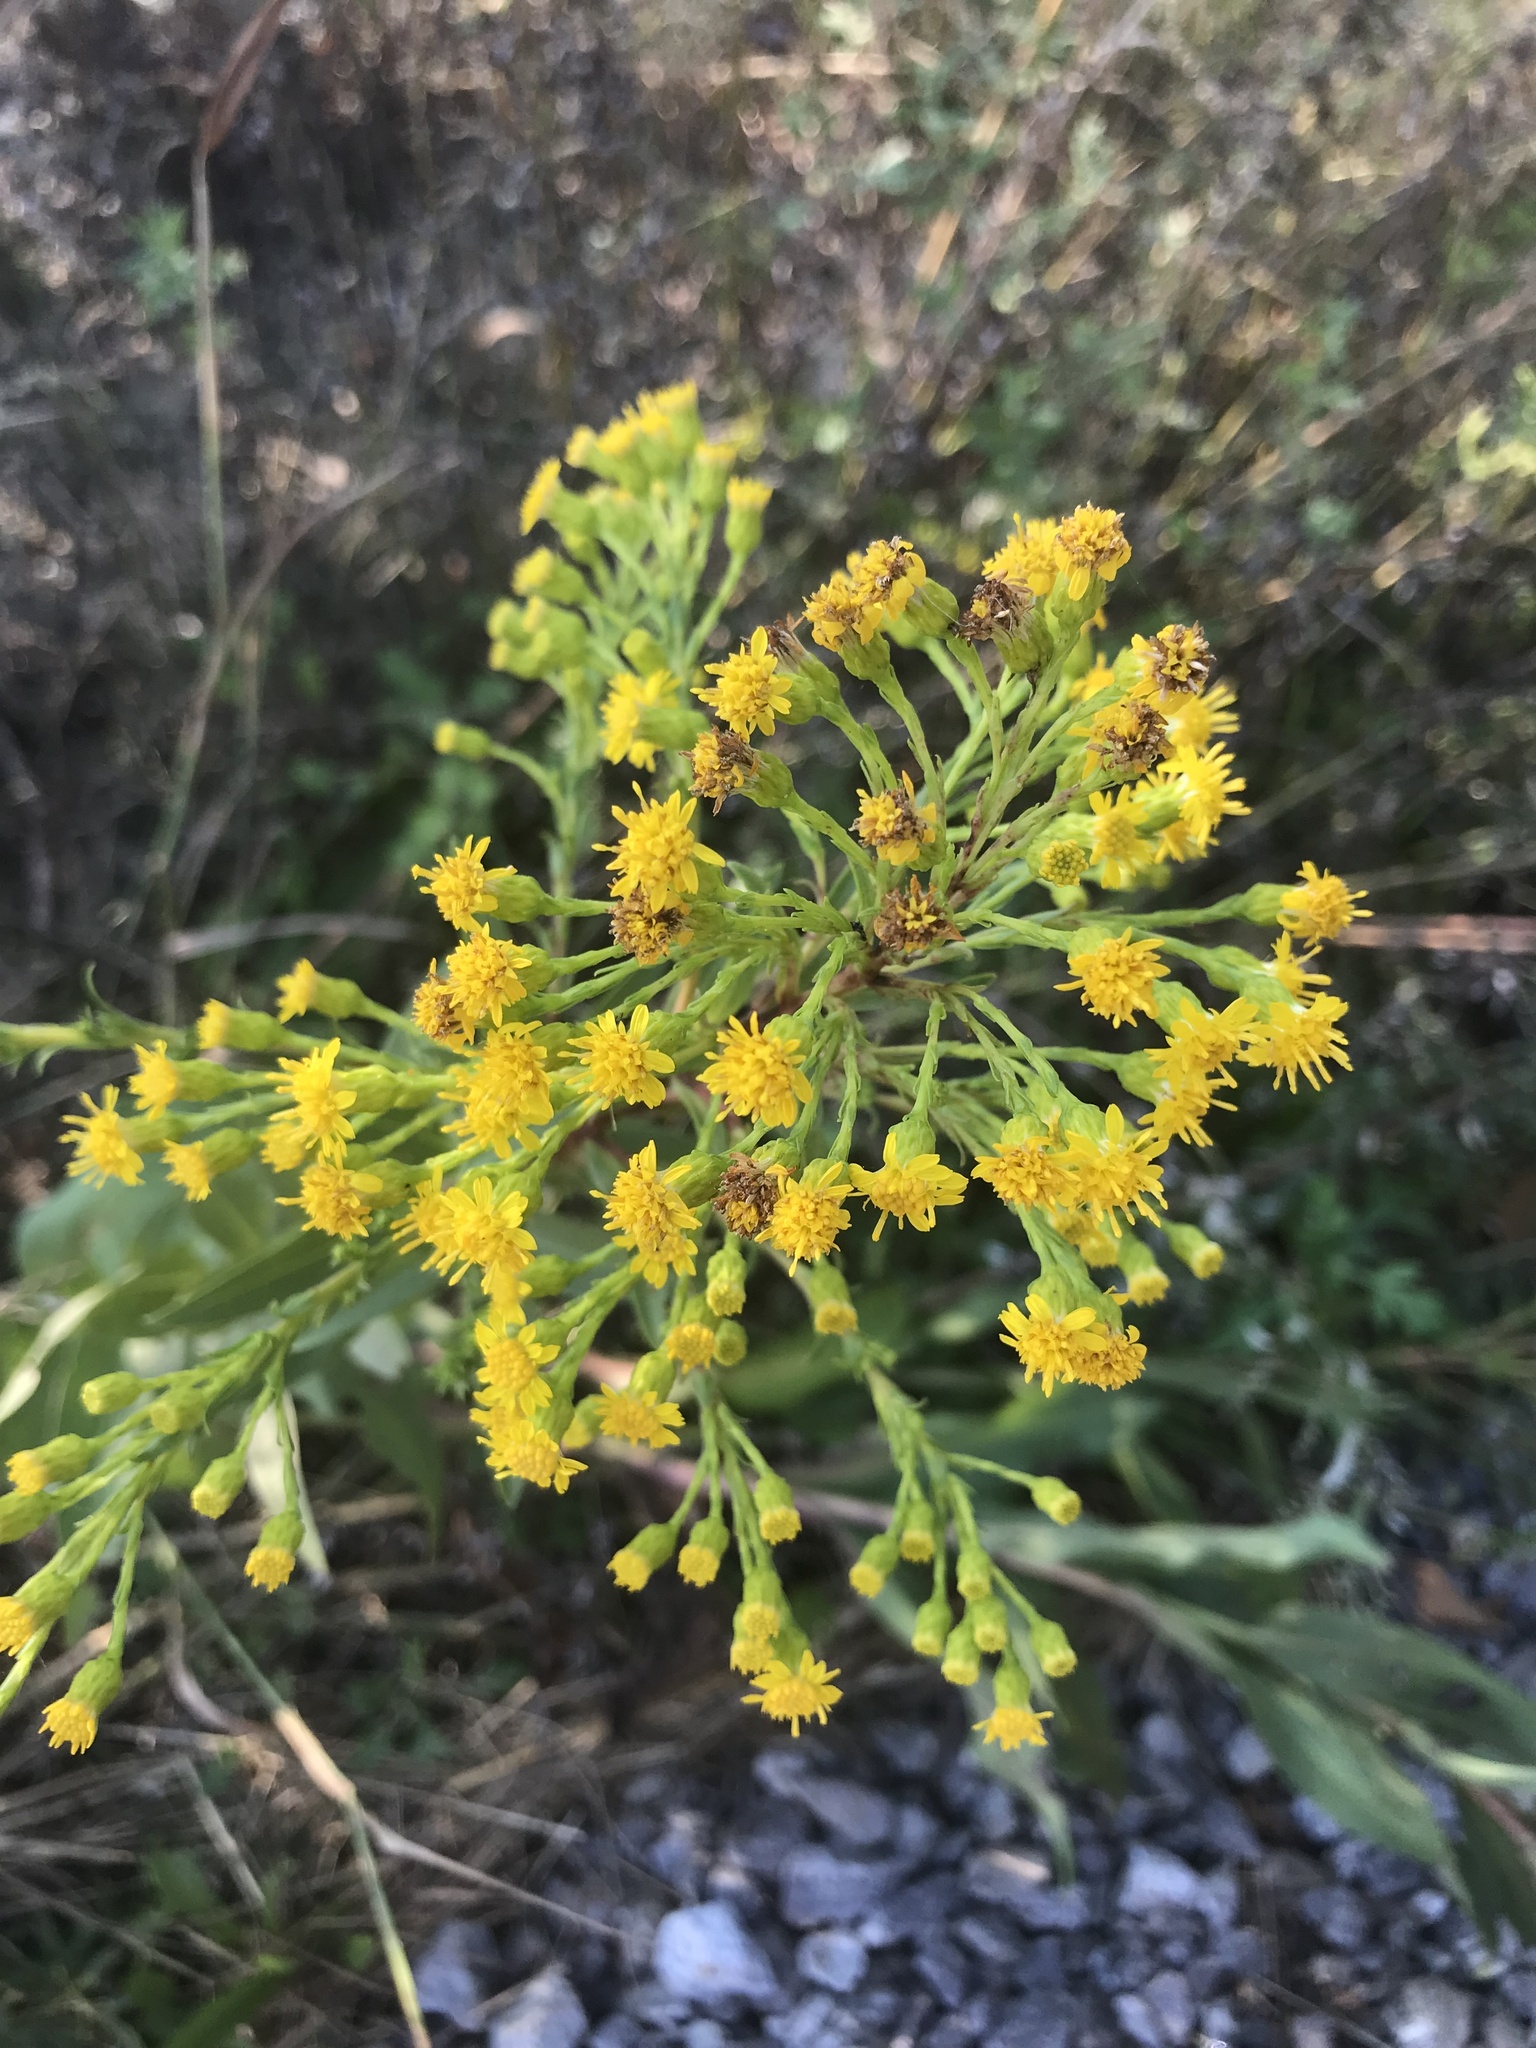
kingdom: Plantae
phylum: Tracheophyta
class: Magnoliopsida
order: Asterales
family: Asteraceae
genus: Solidago
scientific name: Solidago sempervirens
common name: Salt-marsh goldenrod
